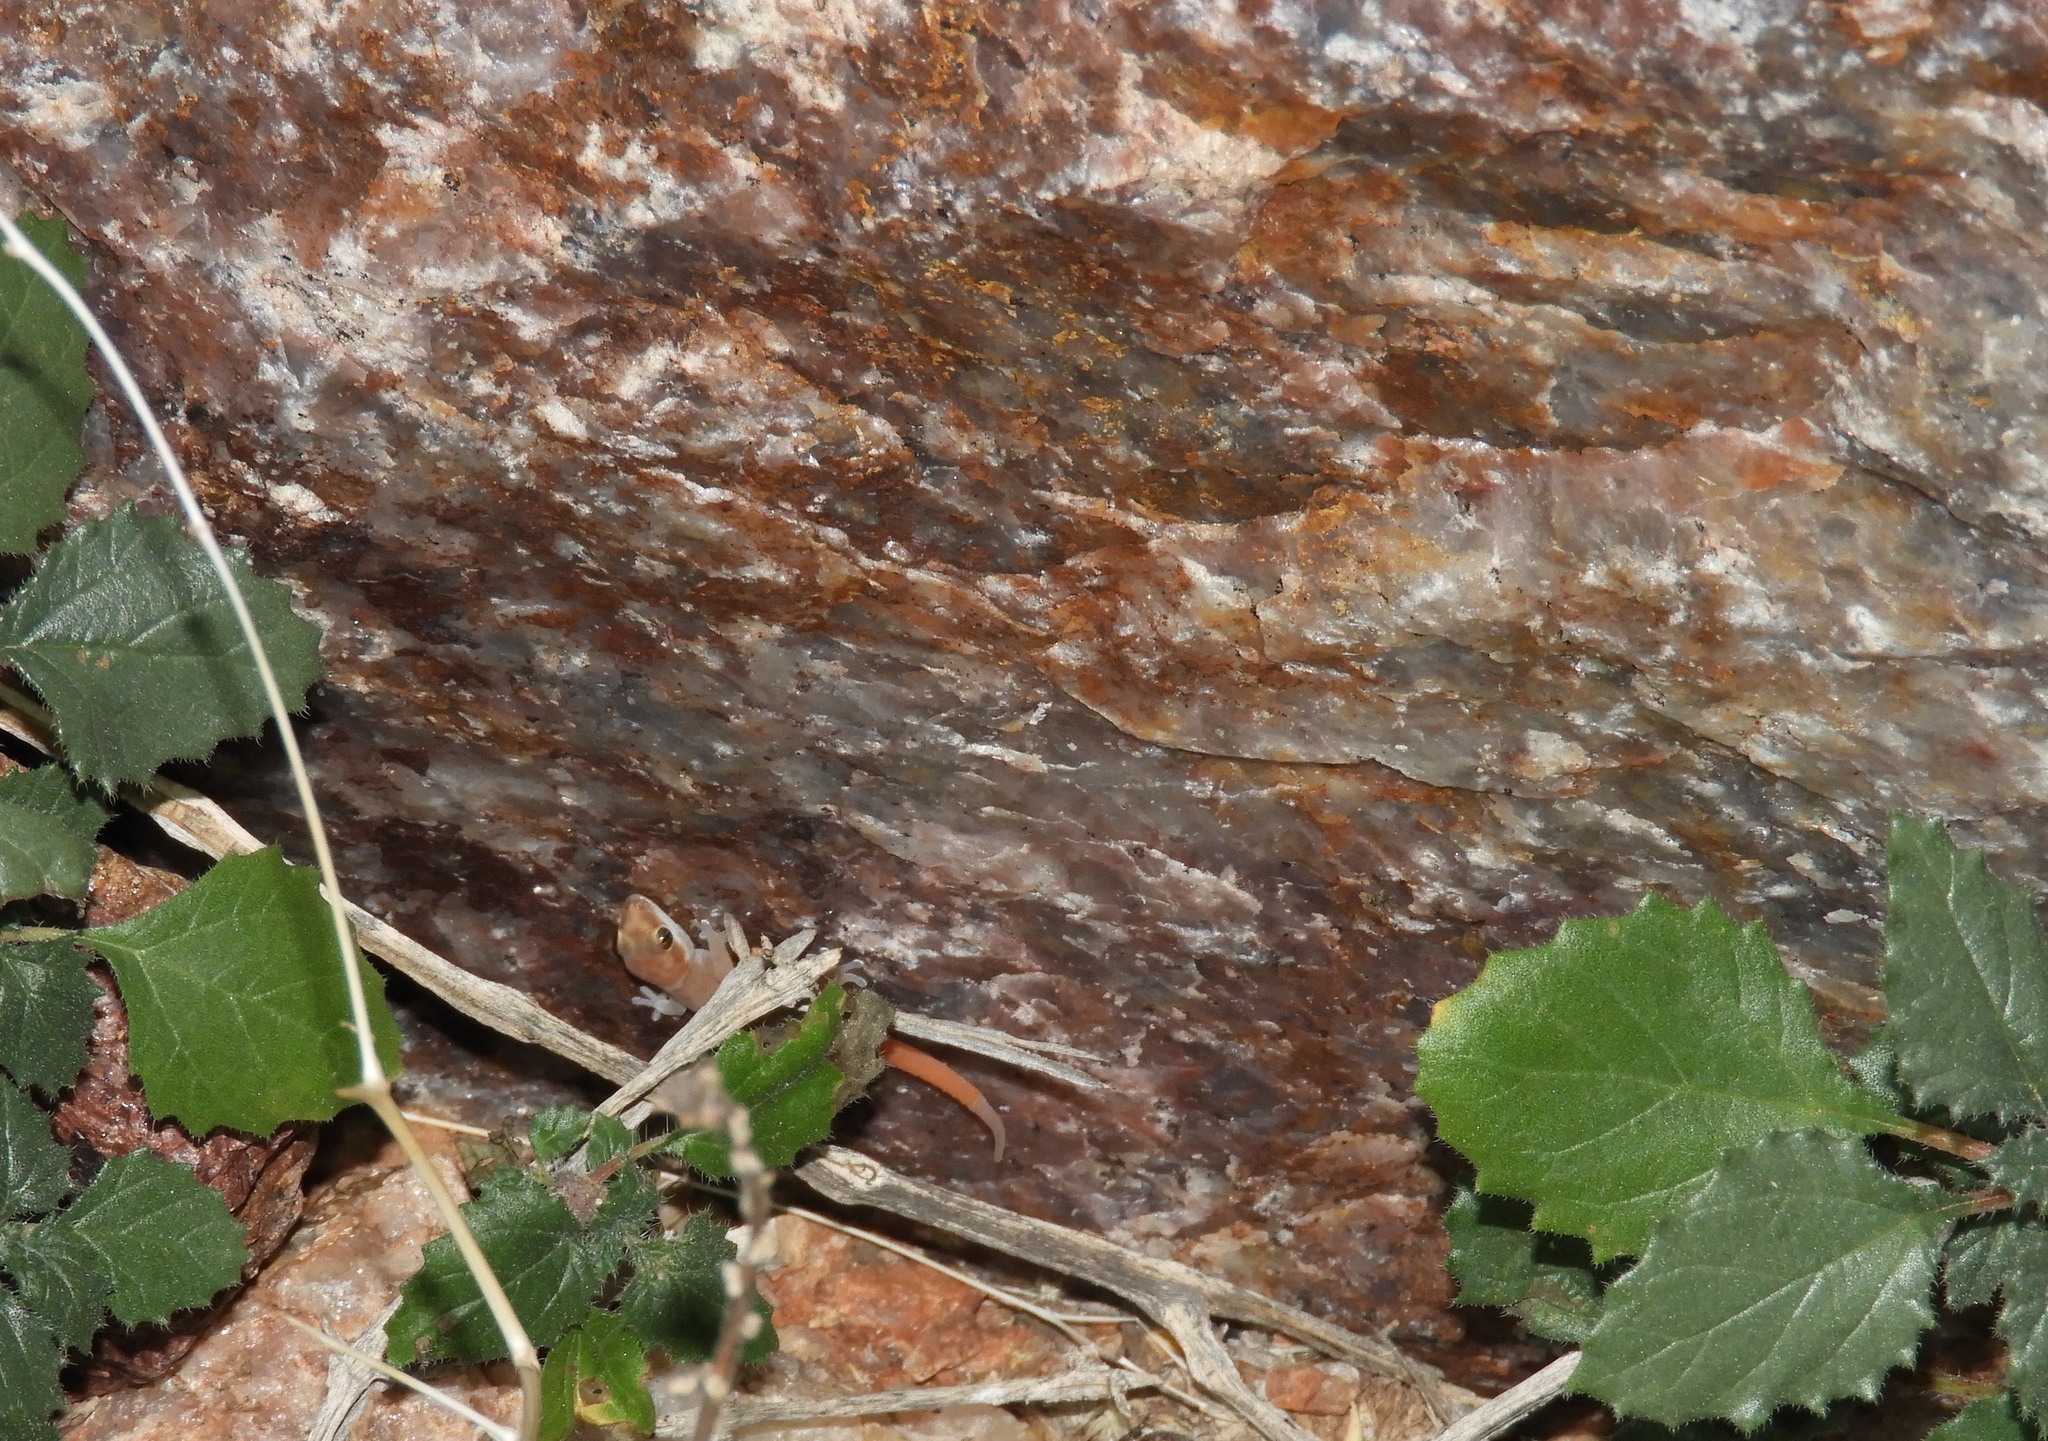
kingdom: Animalia
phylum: Chordata
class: Squamata
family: Gekkonidae
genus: Pachydactylus
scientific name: Pachydactylus atorquatus
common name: Augrabies gecko
